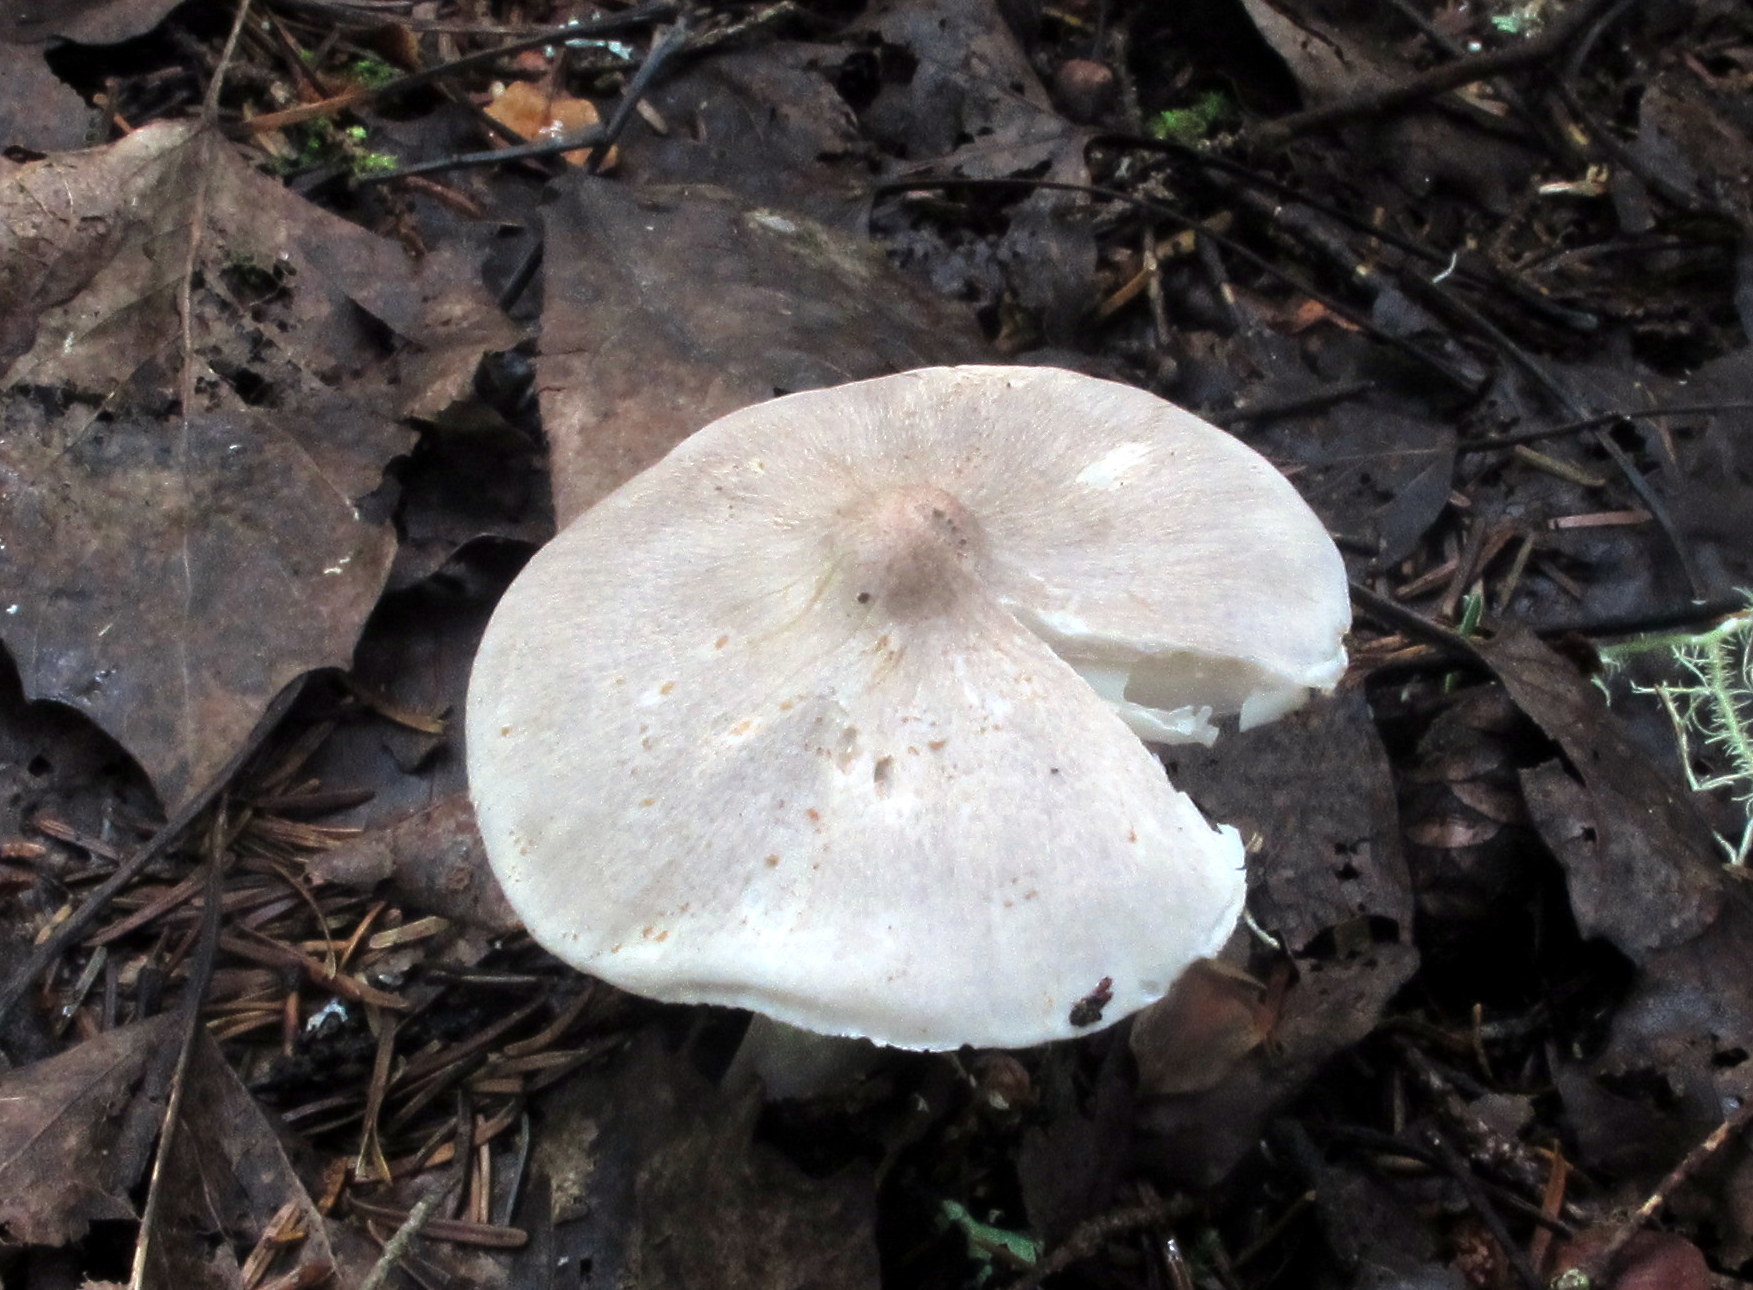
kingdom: Fungi
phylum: Basidiomycota
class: Agaricomycetes
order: Agaricales
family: Tricholomataceae
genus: Tricholoma
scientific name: Tricholoma virgatum
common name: Ashen knight
